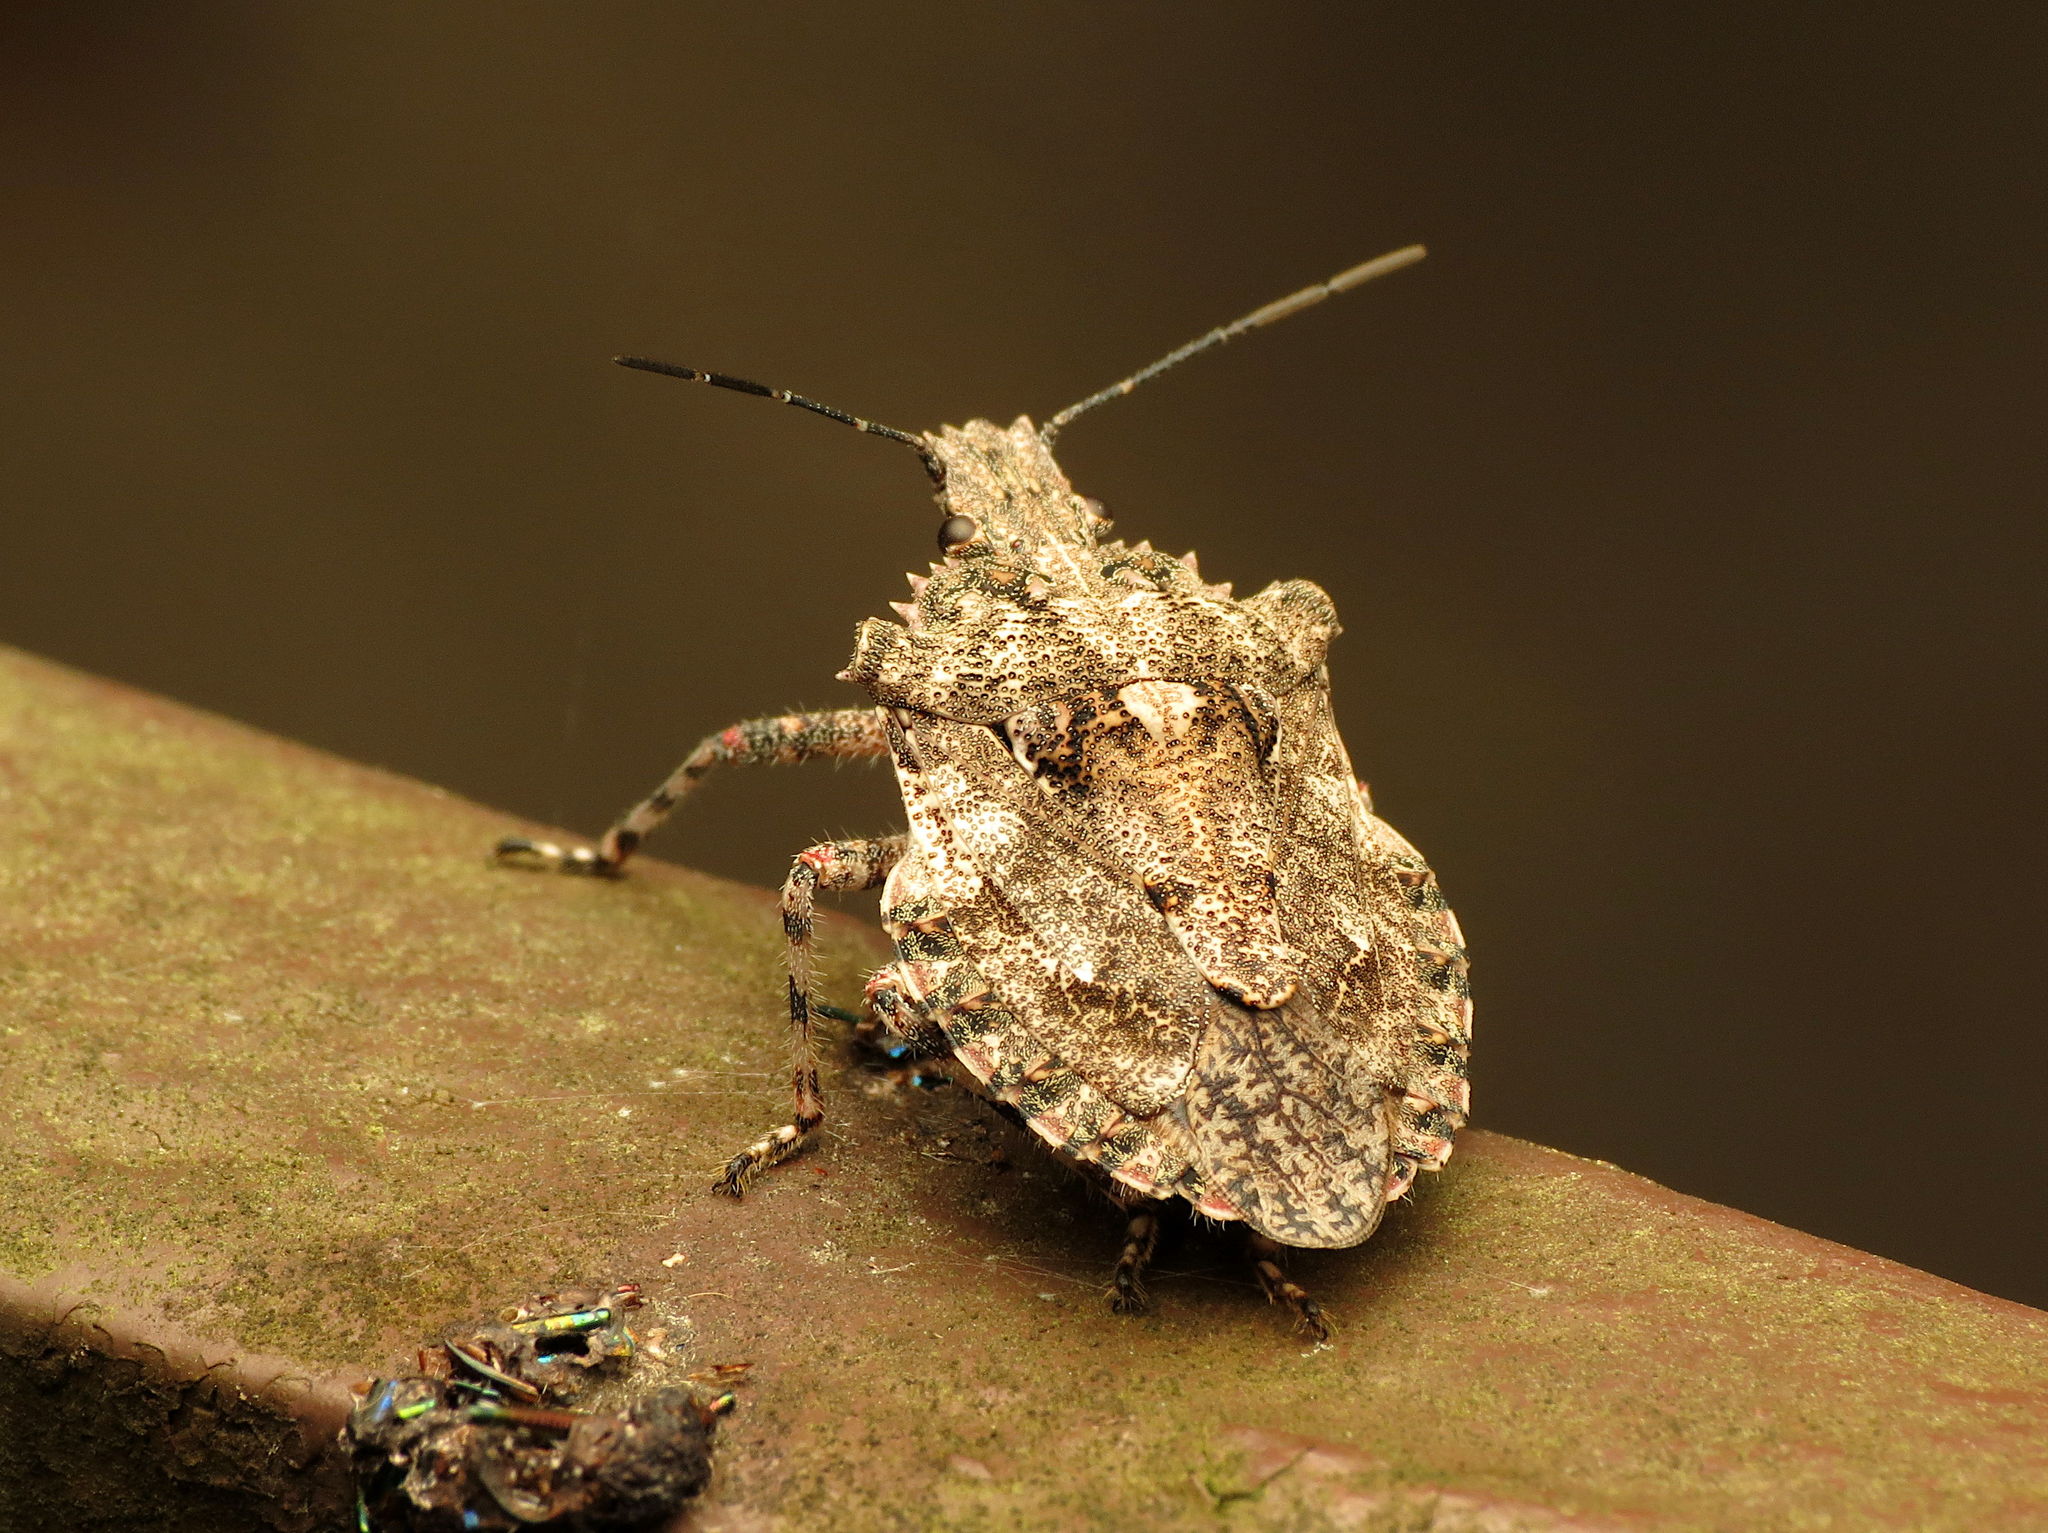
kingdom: Animalia
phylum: Arthropoda
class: Insecta
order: Hemiptera
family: Pentatomidae
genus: Brochymena
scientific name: Brochymena arborea
